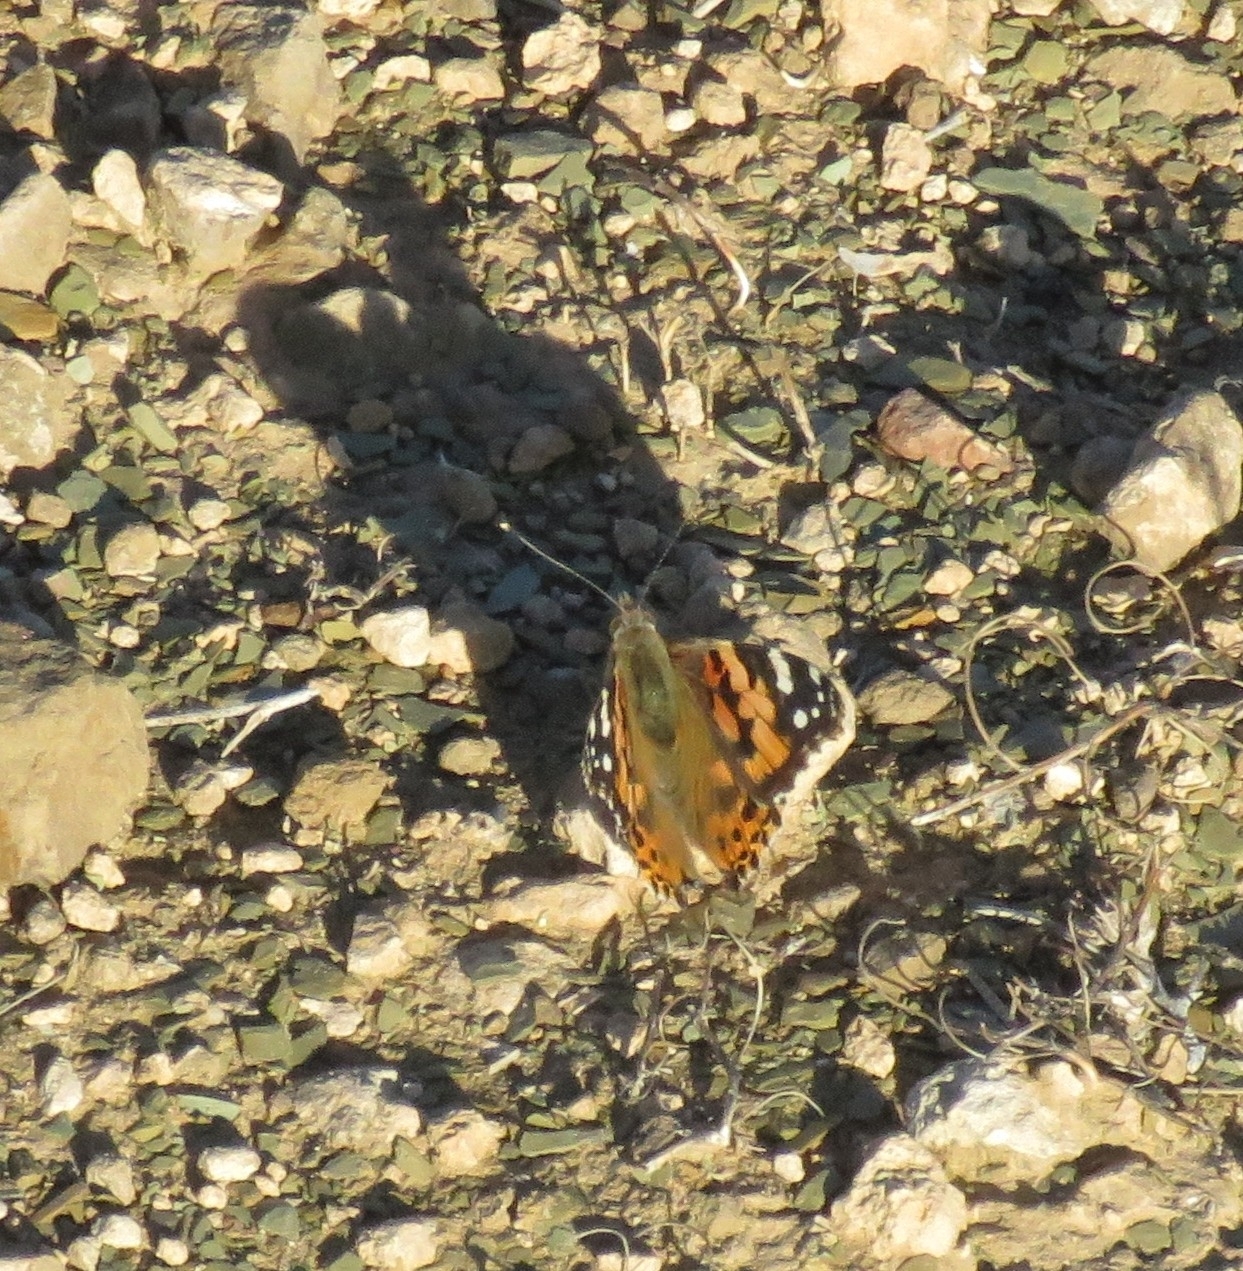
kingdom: Animalia
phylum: Arthropoda
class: Insecta
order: Lepidoptera
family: Nymphalidae
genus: Vanessa
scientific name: Vanessa cardui
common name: Painted lady
